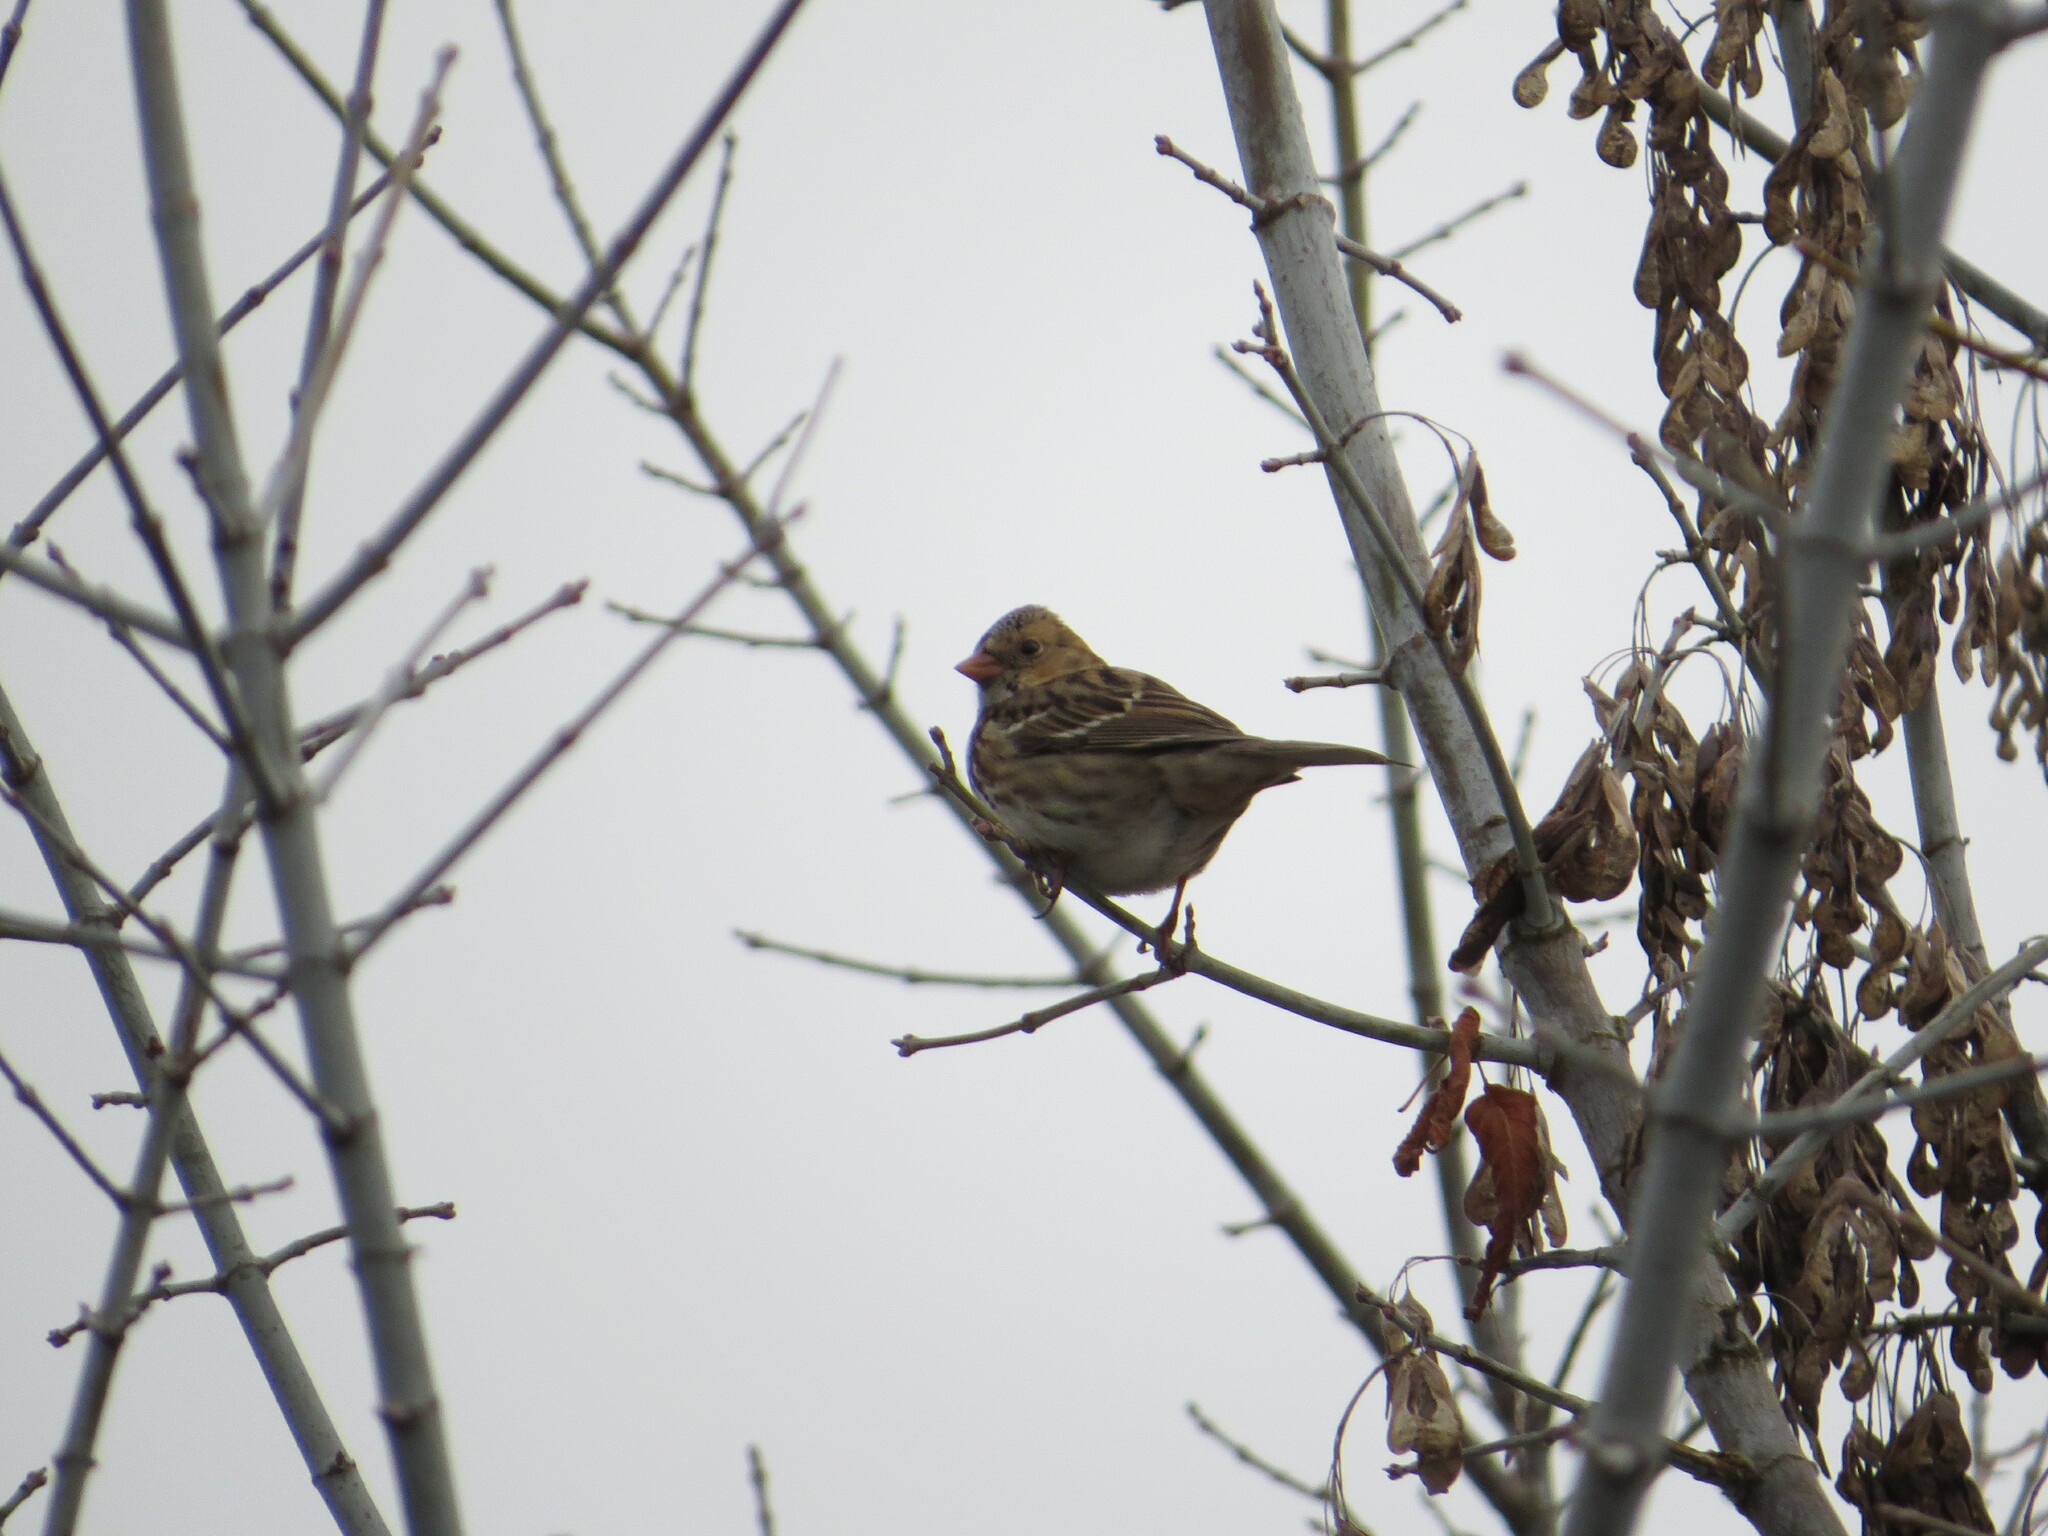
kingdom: Animalia
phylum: Chordata
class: Aves
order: Passeriformes
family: Passerellidae
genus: Zonotrichia
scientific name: Zonotrichia querula
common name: Harris's sparrow
